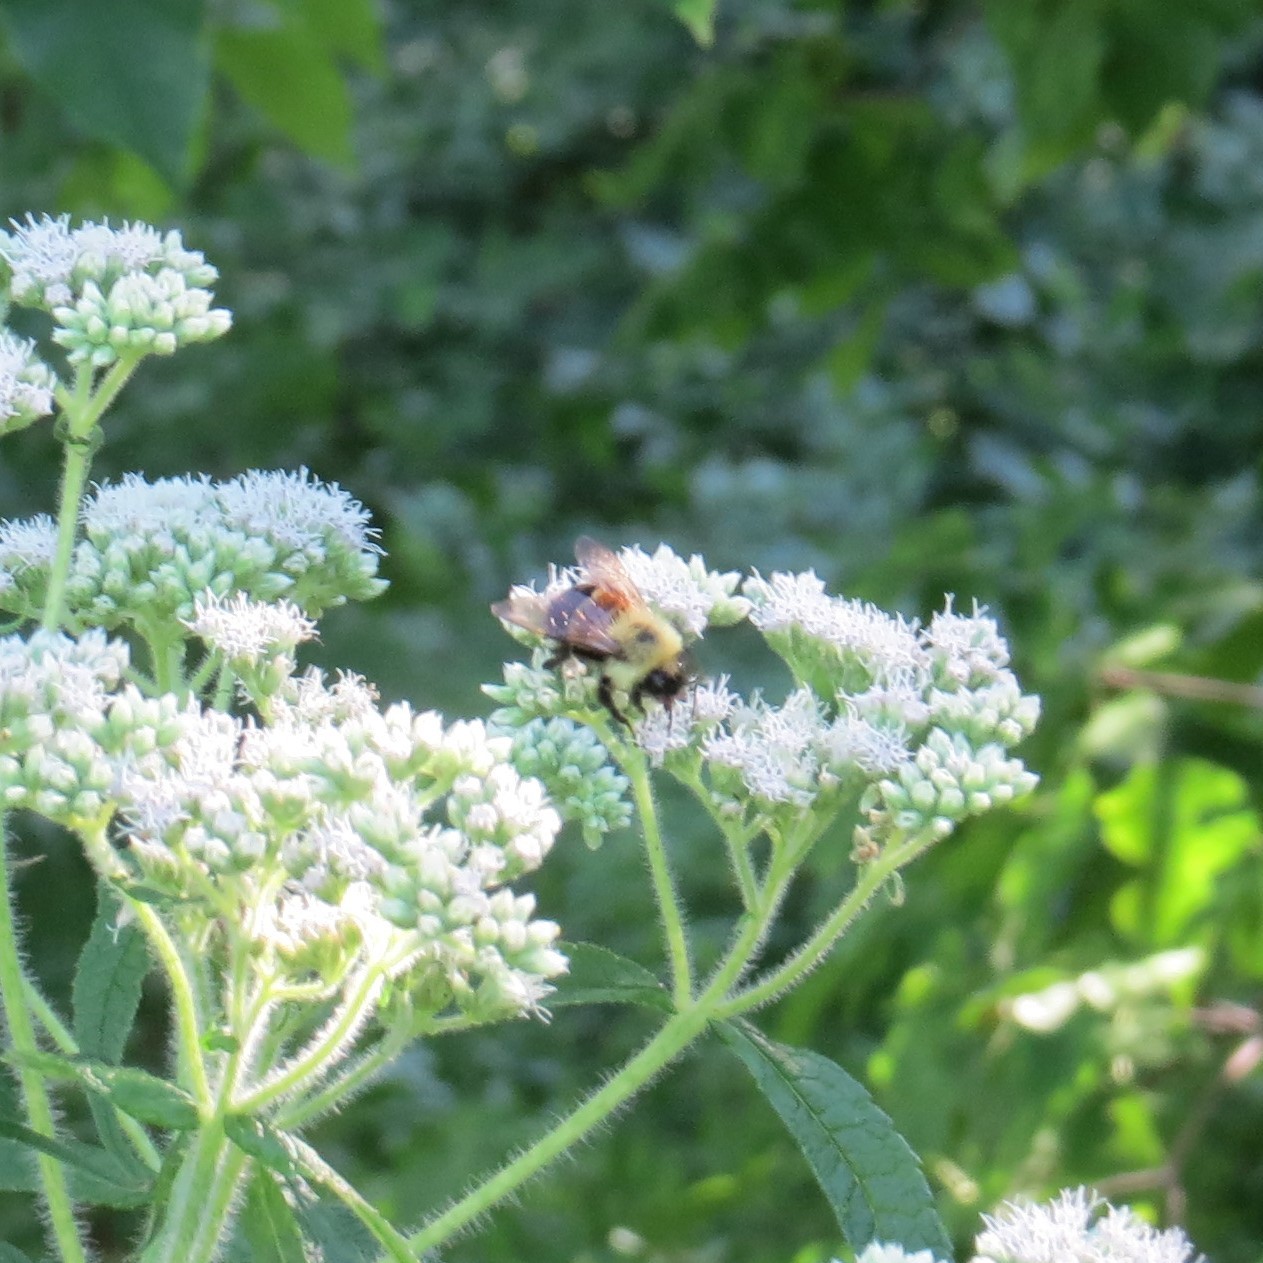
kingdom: Animalia
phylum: Arthropoda
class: Insecta
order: Hymenoptera
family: Apidae
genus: Bombus
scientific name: Bombus affinis
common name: Rusty patched bumble bee
